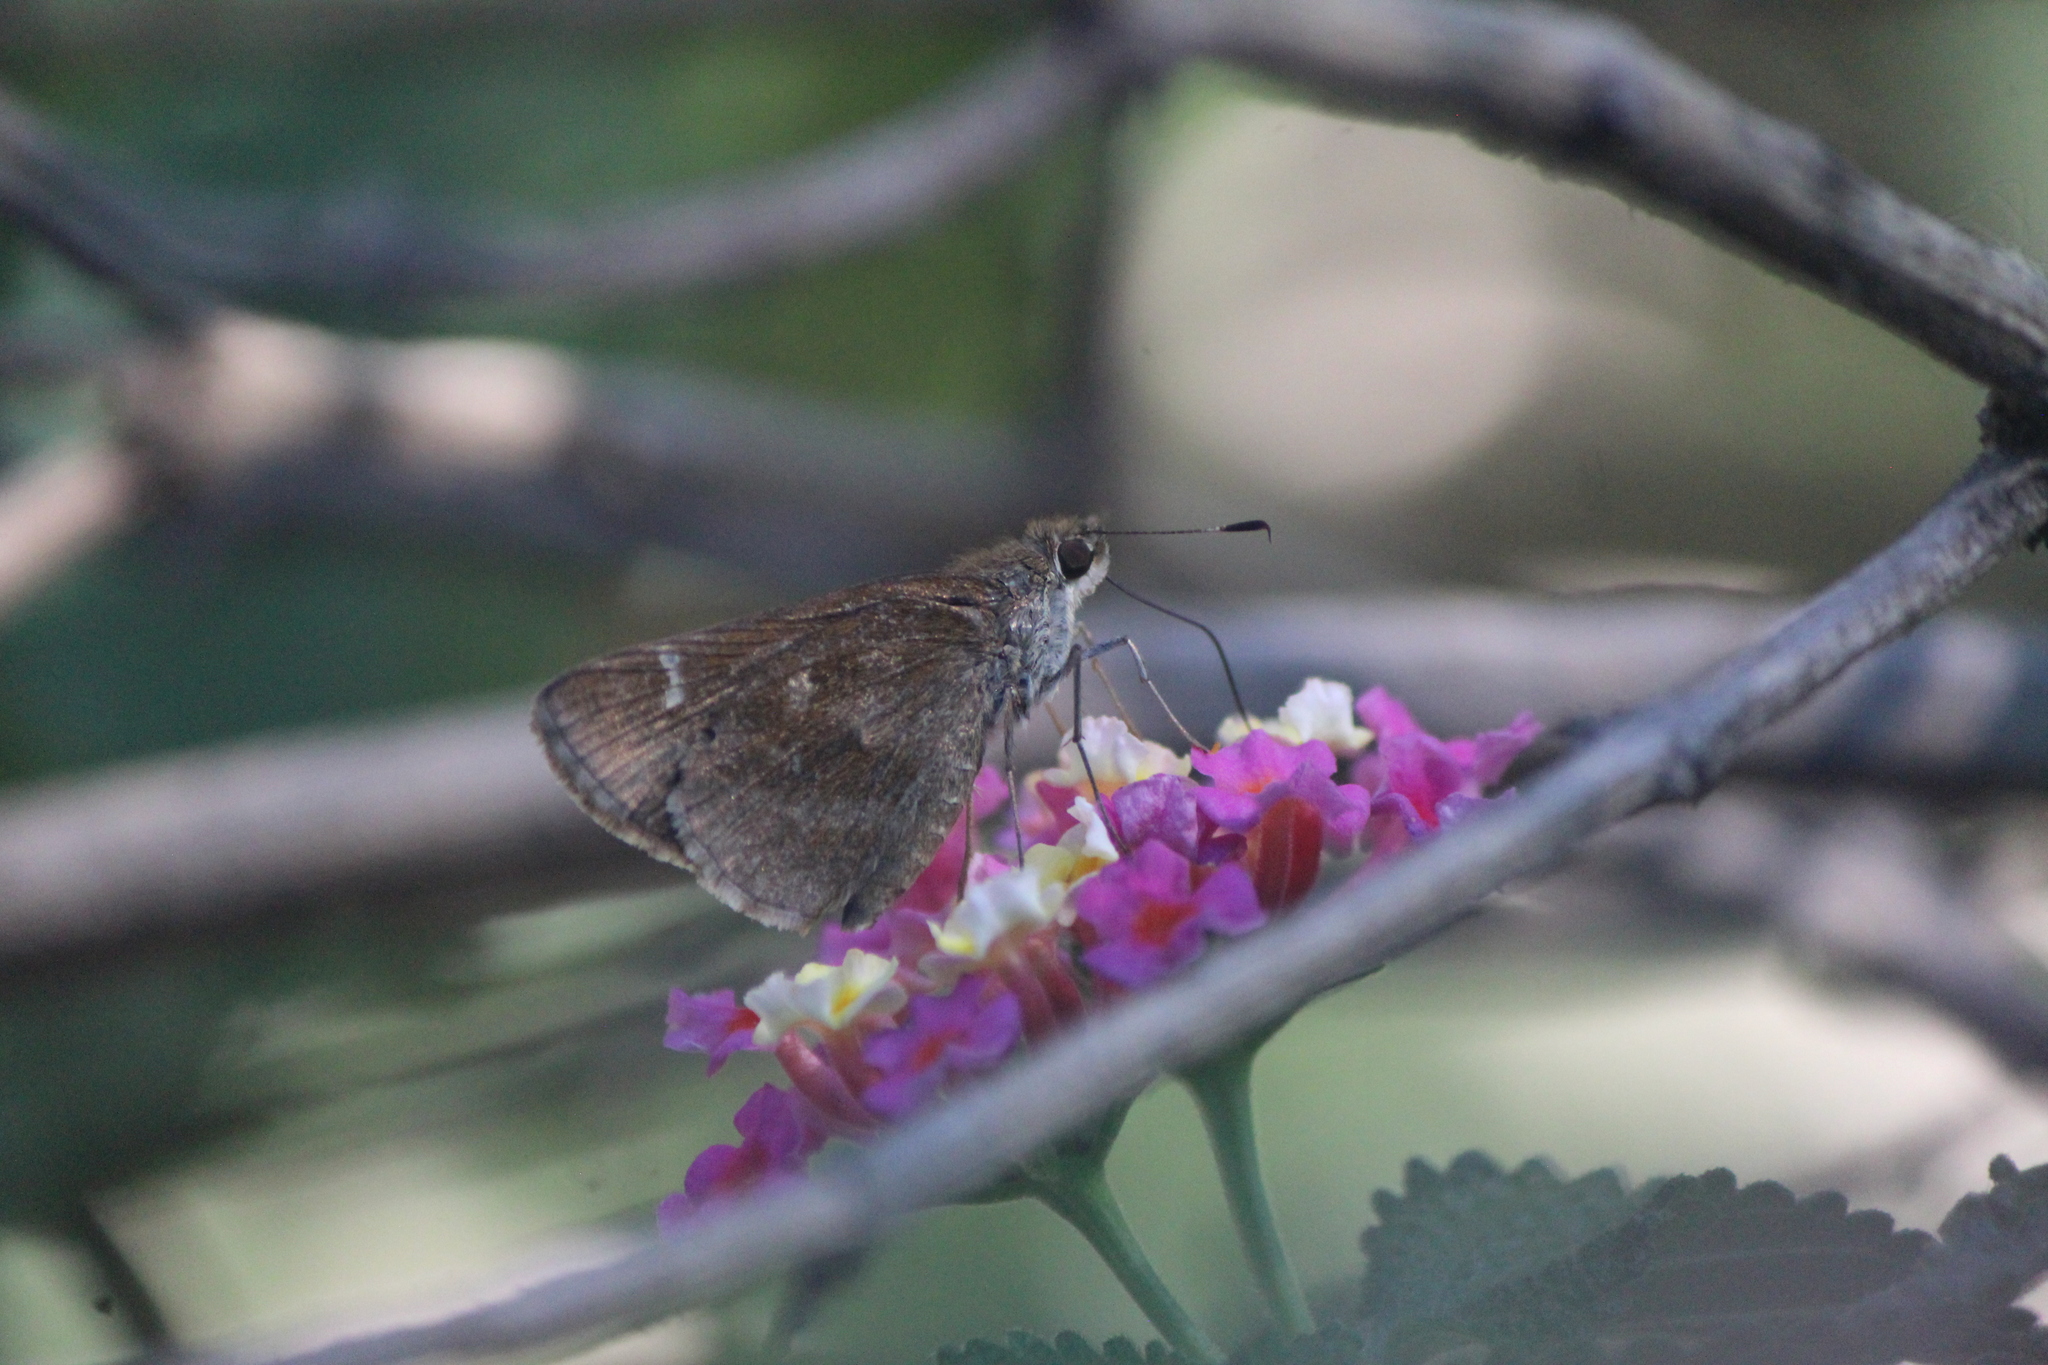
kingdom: Animalia
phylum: Arthropoda
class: Insecta
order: Lepidoptera
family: Hesperiidae
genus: Cymaenes
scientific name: Cymaenes
